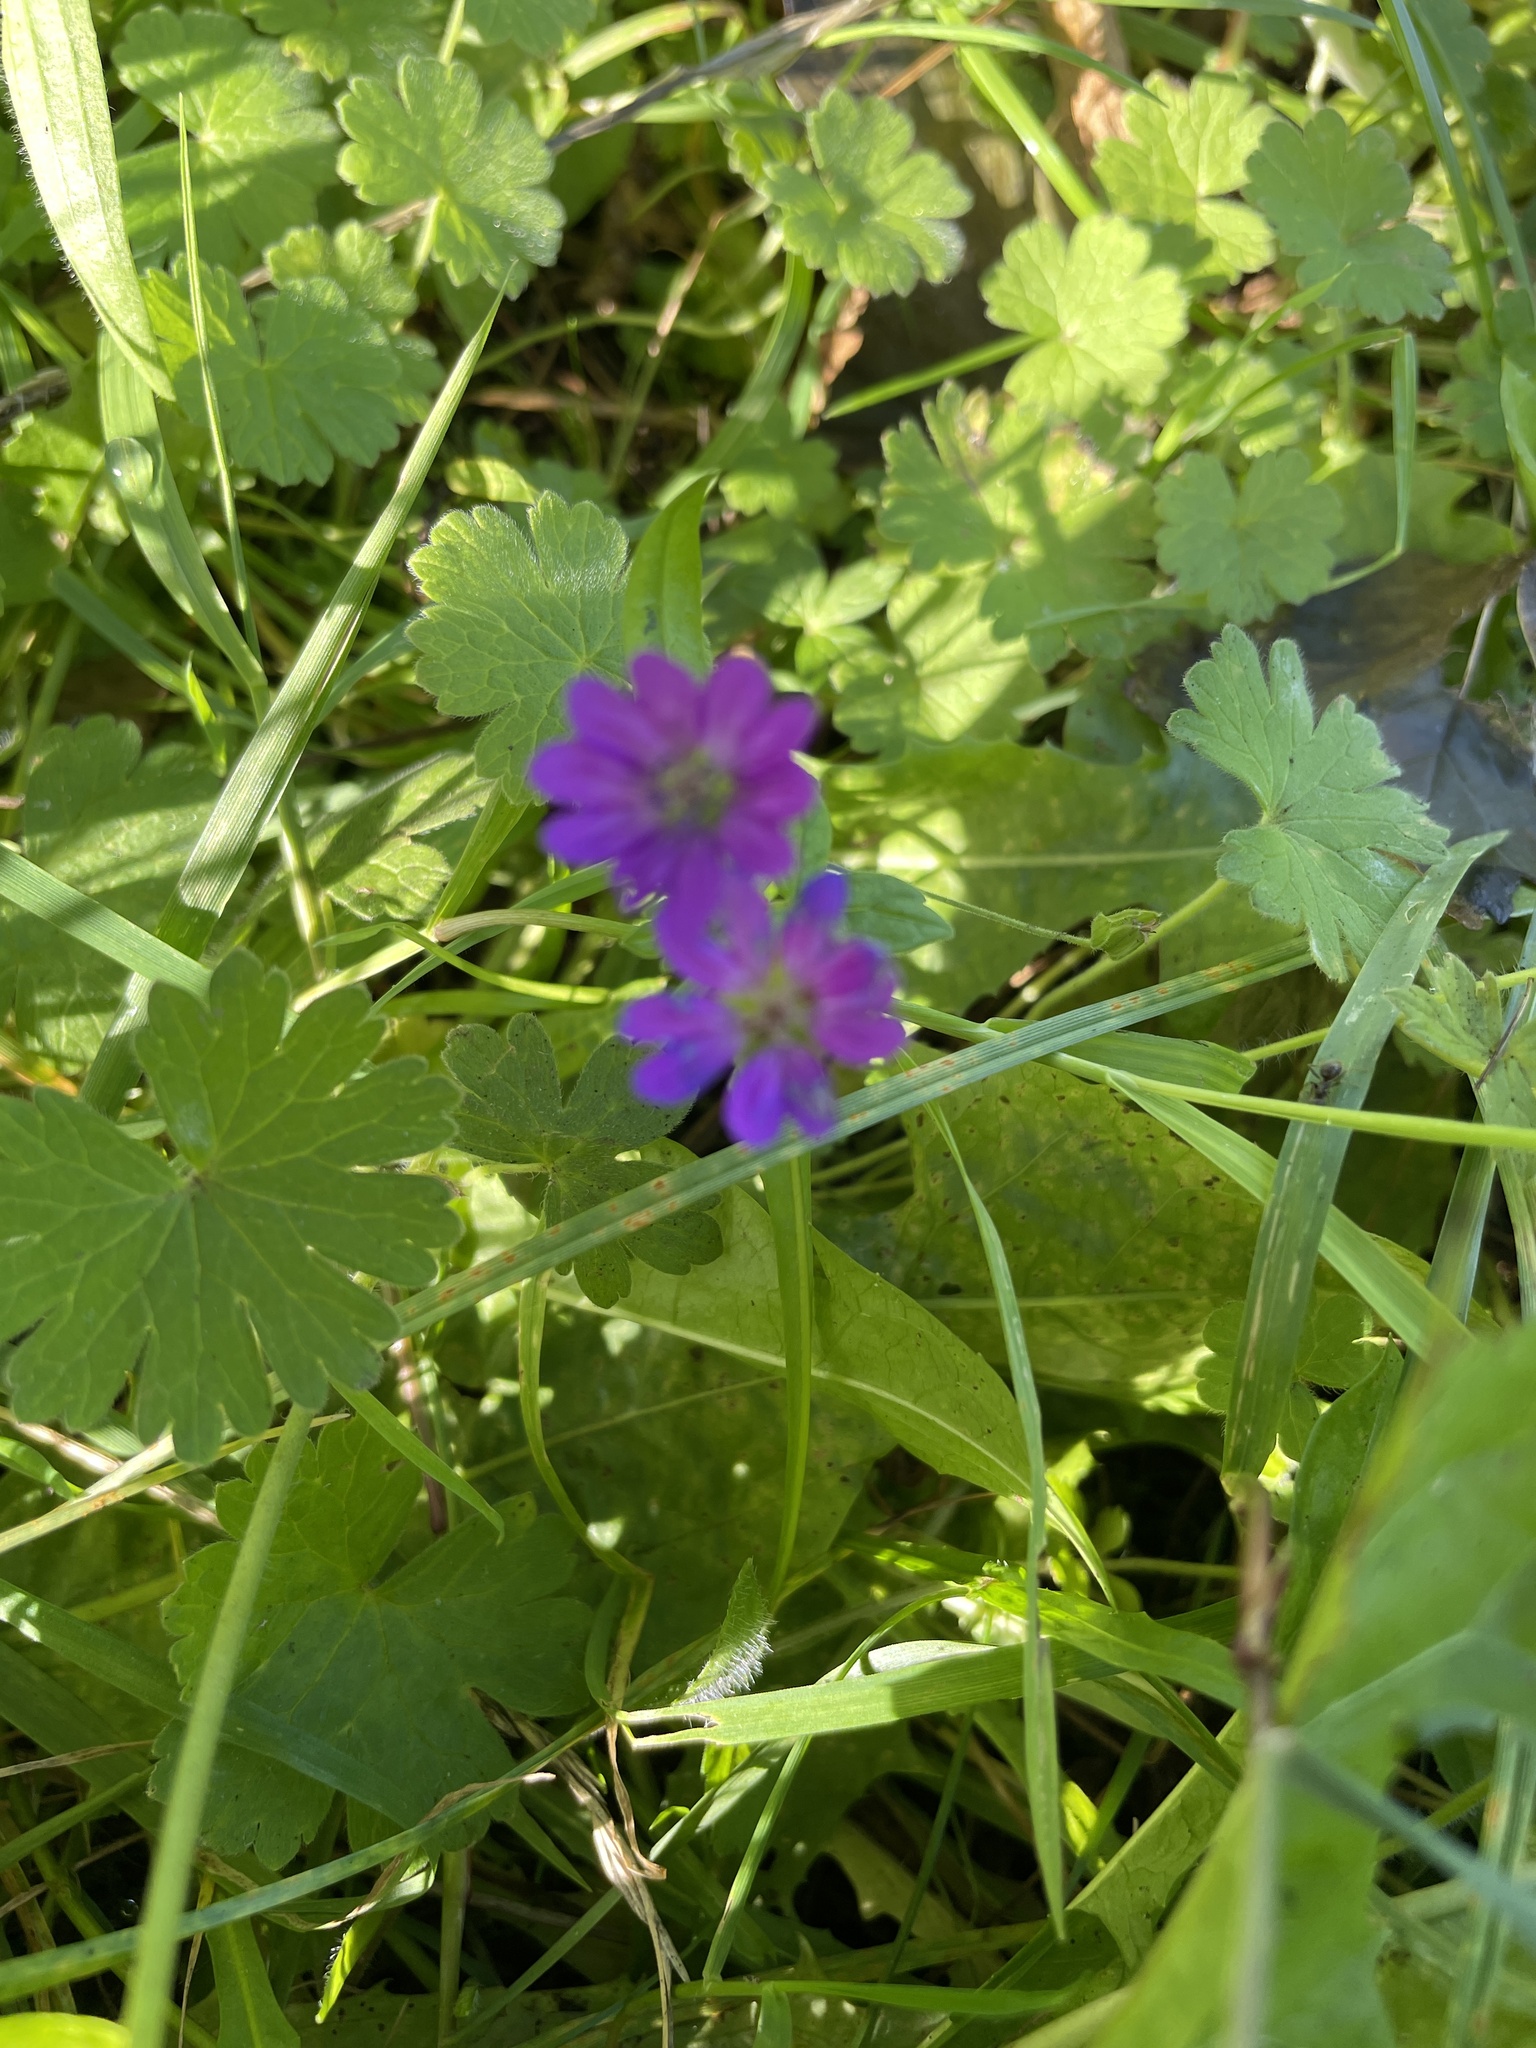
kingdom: Plantae
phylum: Tracheophyta
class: Magnoliopsida
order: Geraniales
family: Geraniaceae
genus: Geranium
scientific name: Geranium pyrenaicum
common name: Hedgerow crane's-bill
